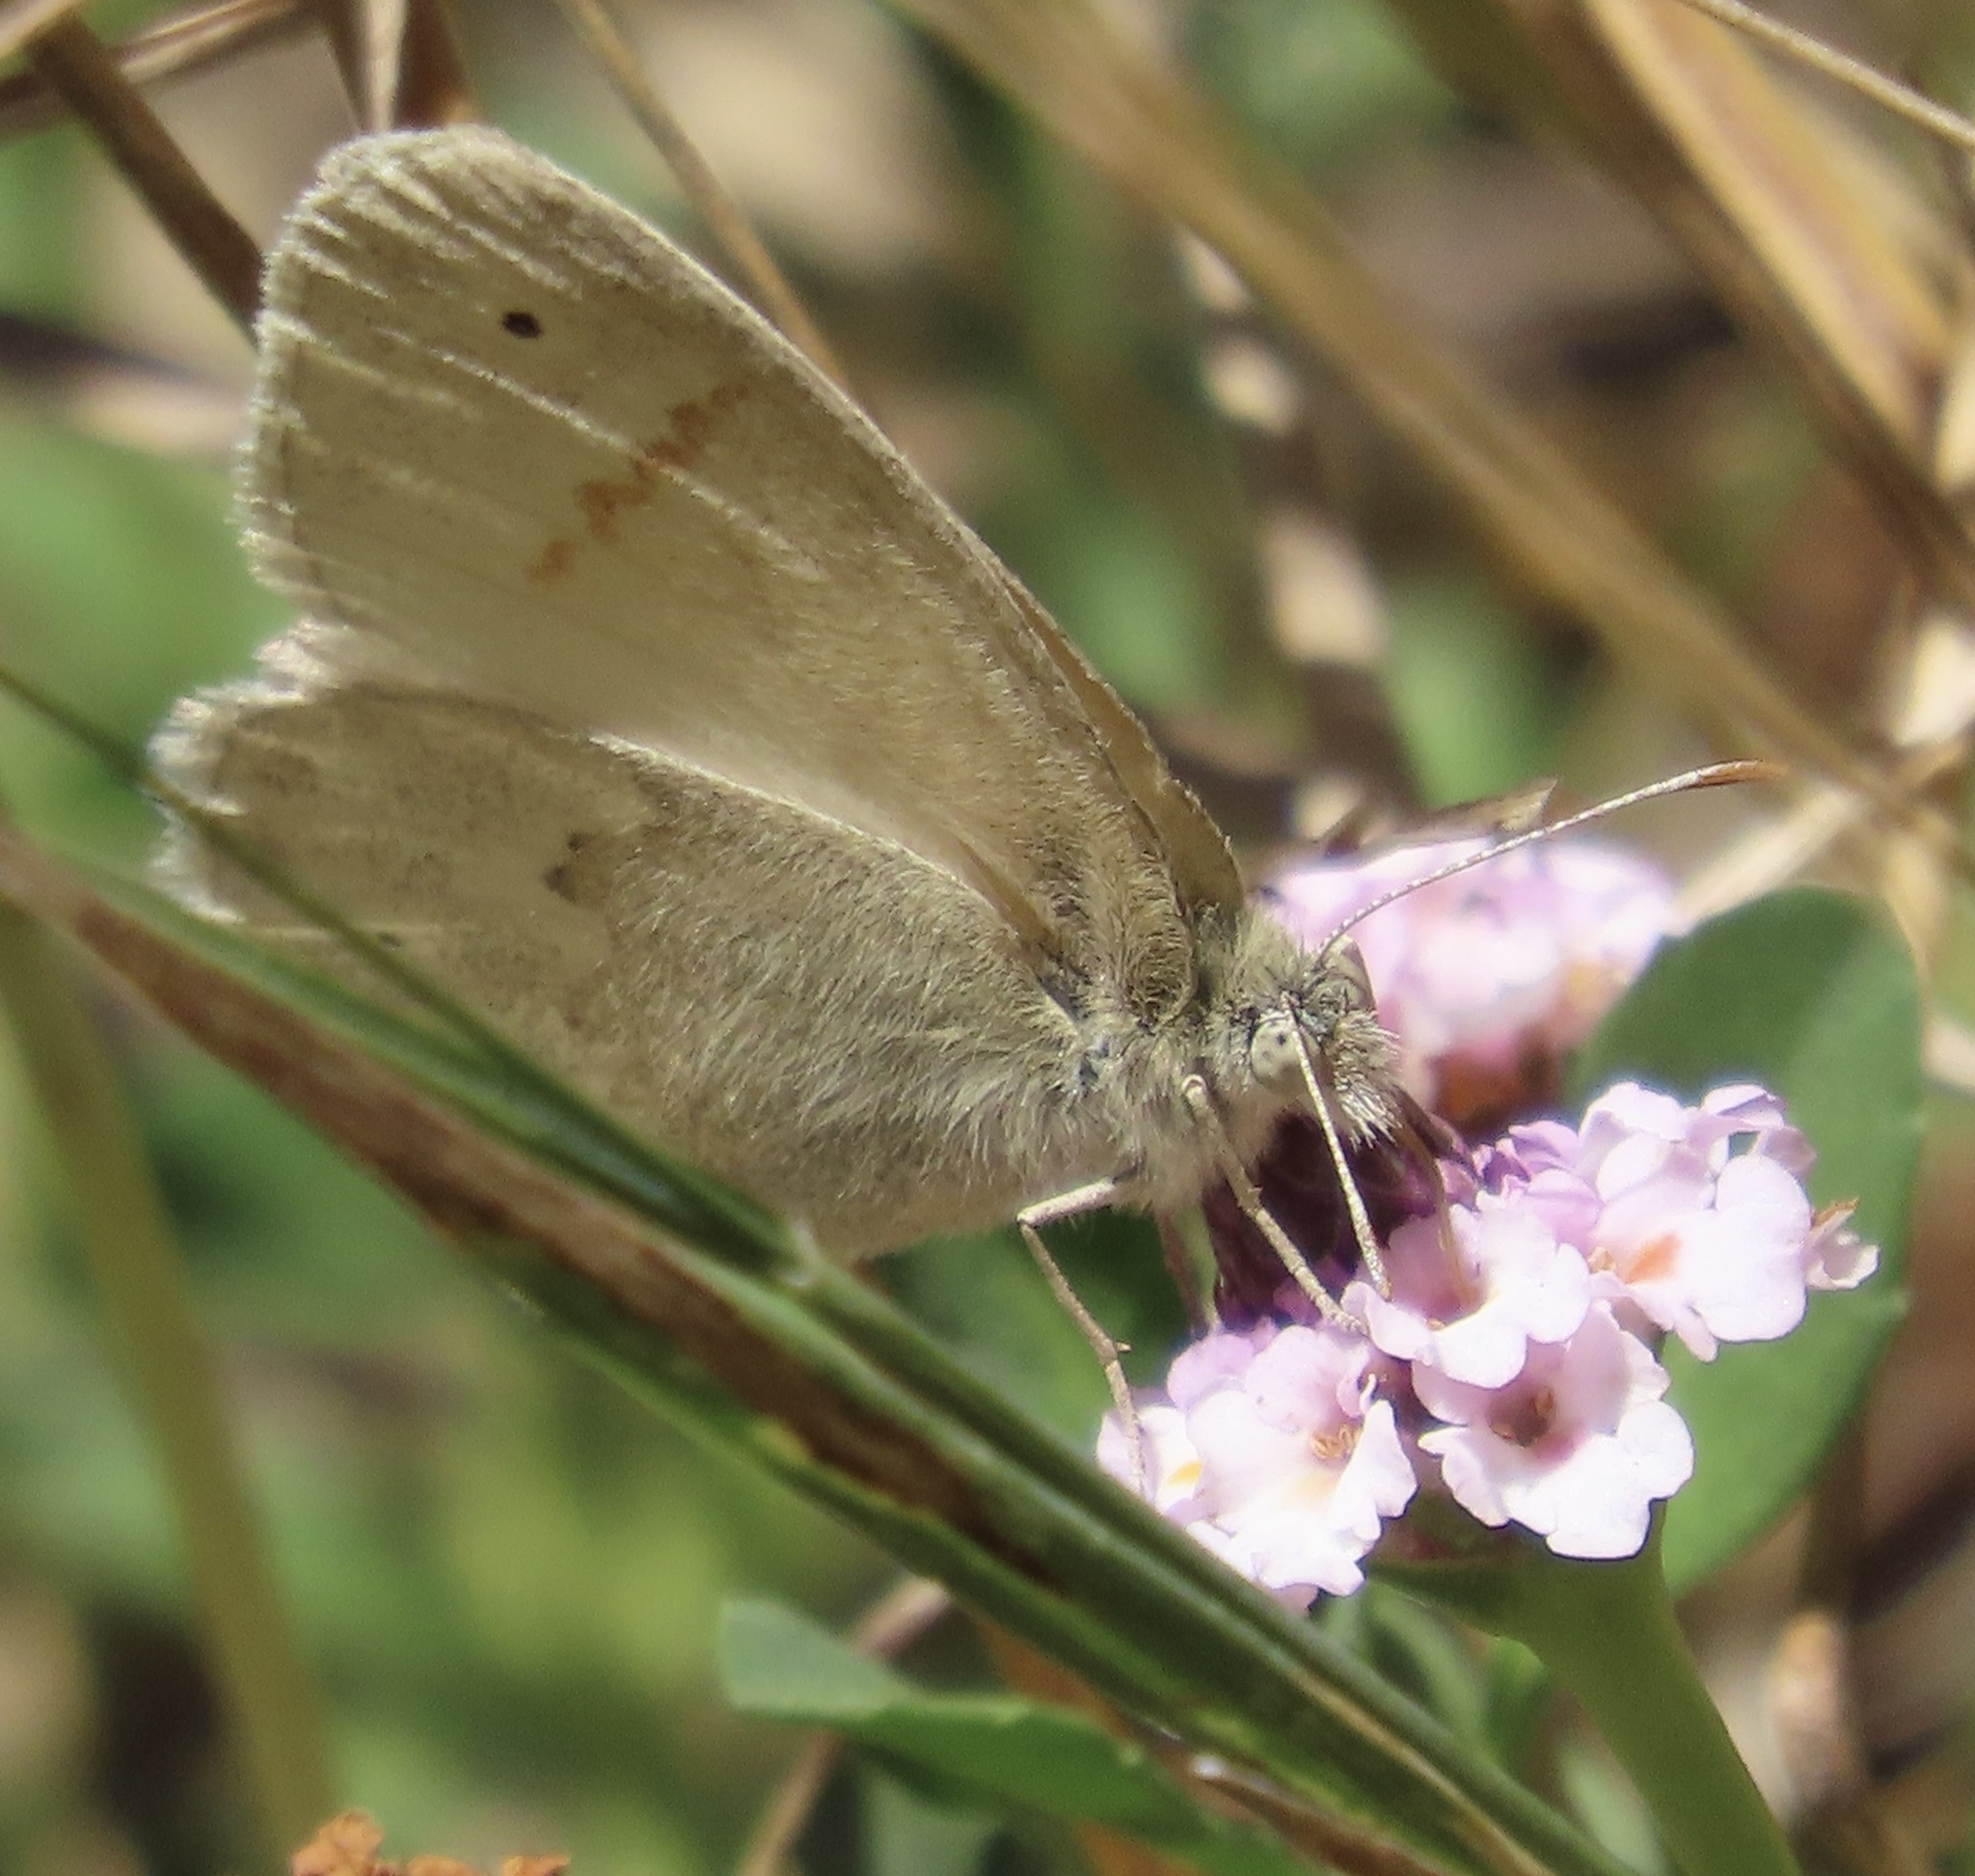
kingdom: Animalia
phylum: Arthropoda
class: Insecta
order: Lepidoptera
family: Nymphalidae
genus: Coenonympha
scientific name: Coenonympha california
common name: Common ringlet
